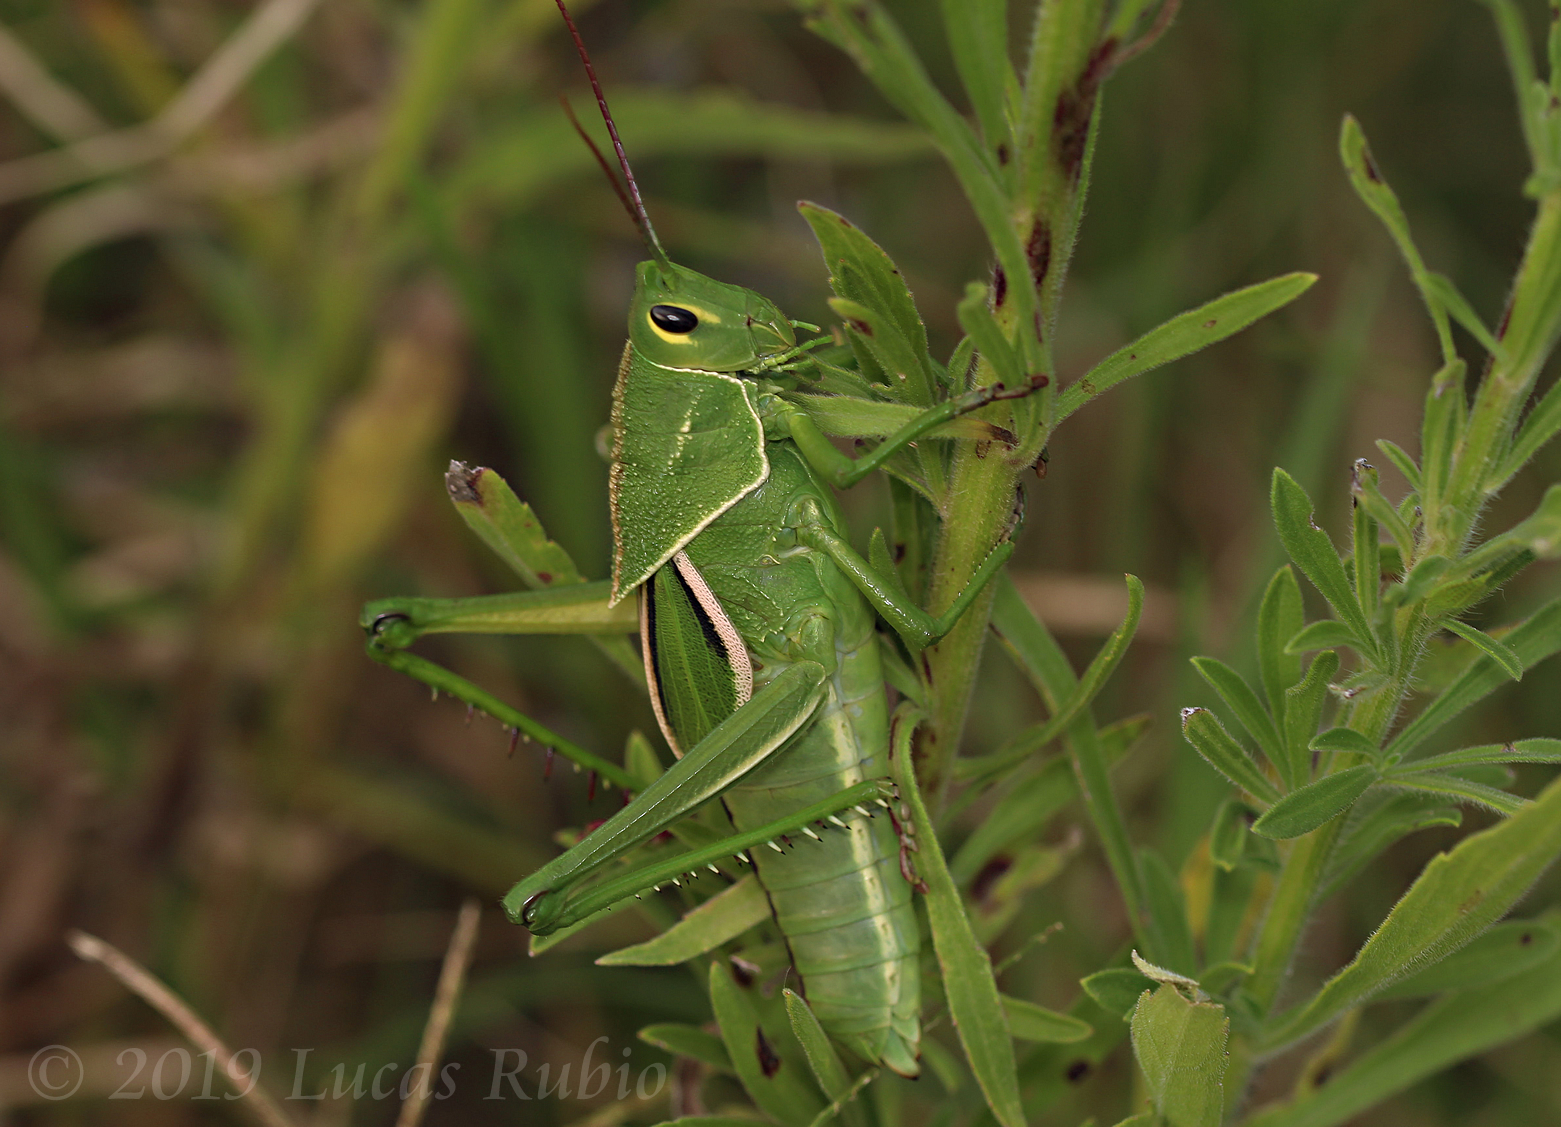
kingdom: Animalia
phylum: Arthropoda
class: Insecta
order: Orthoptera
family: Romaleidae
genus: Staleochlora
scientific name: Staleochlora viridicata
